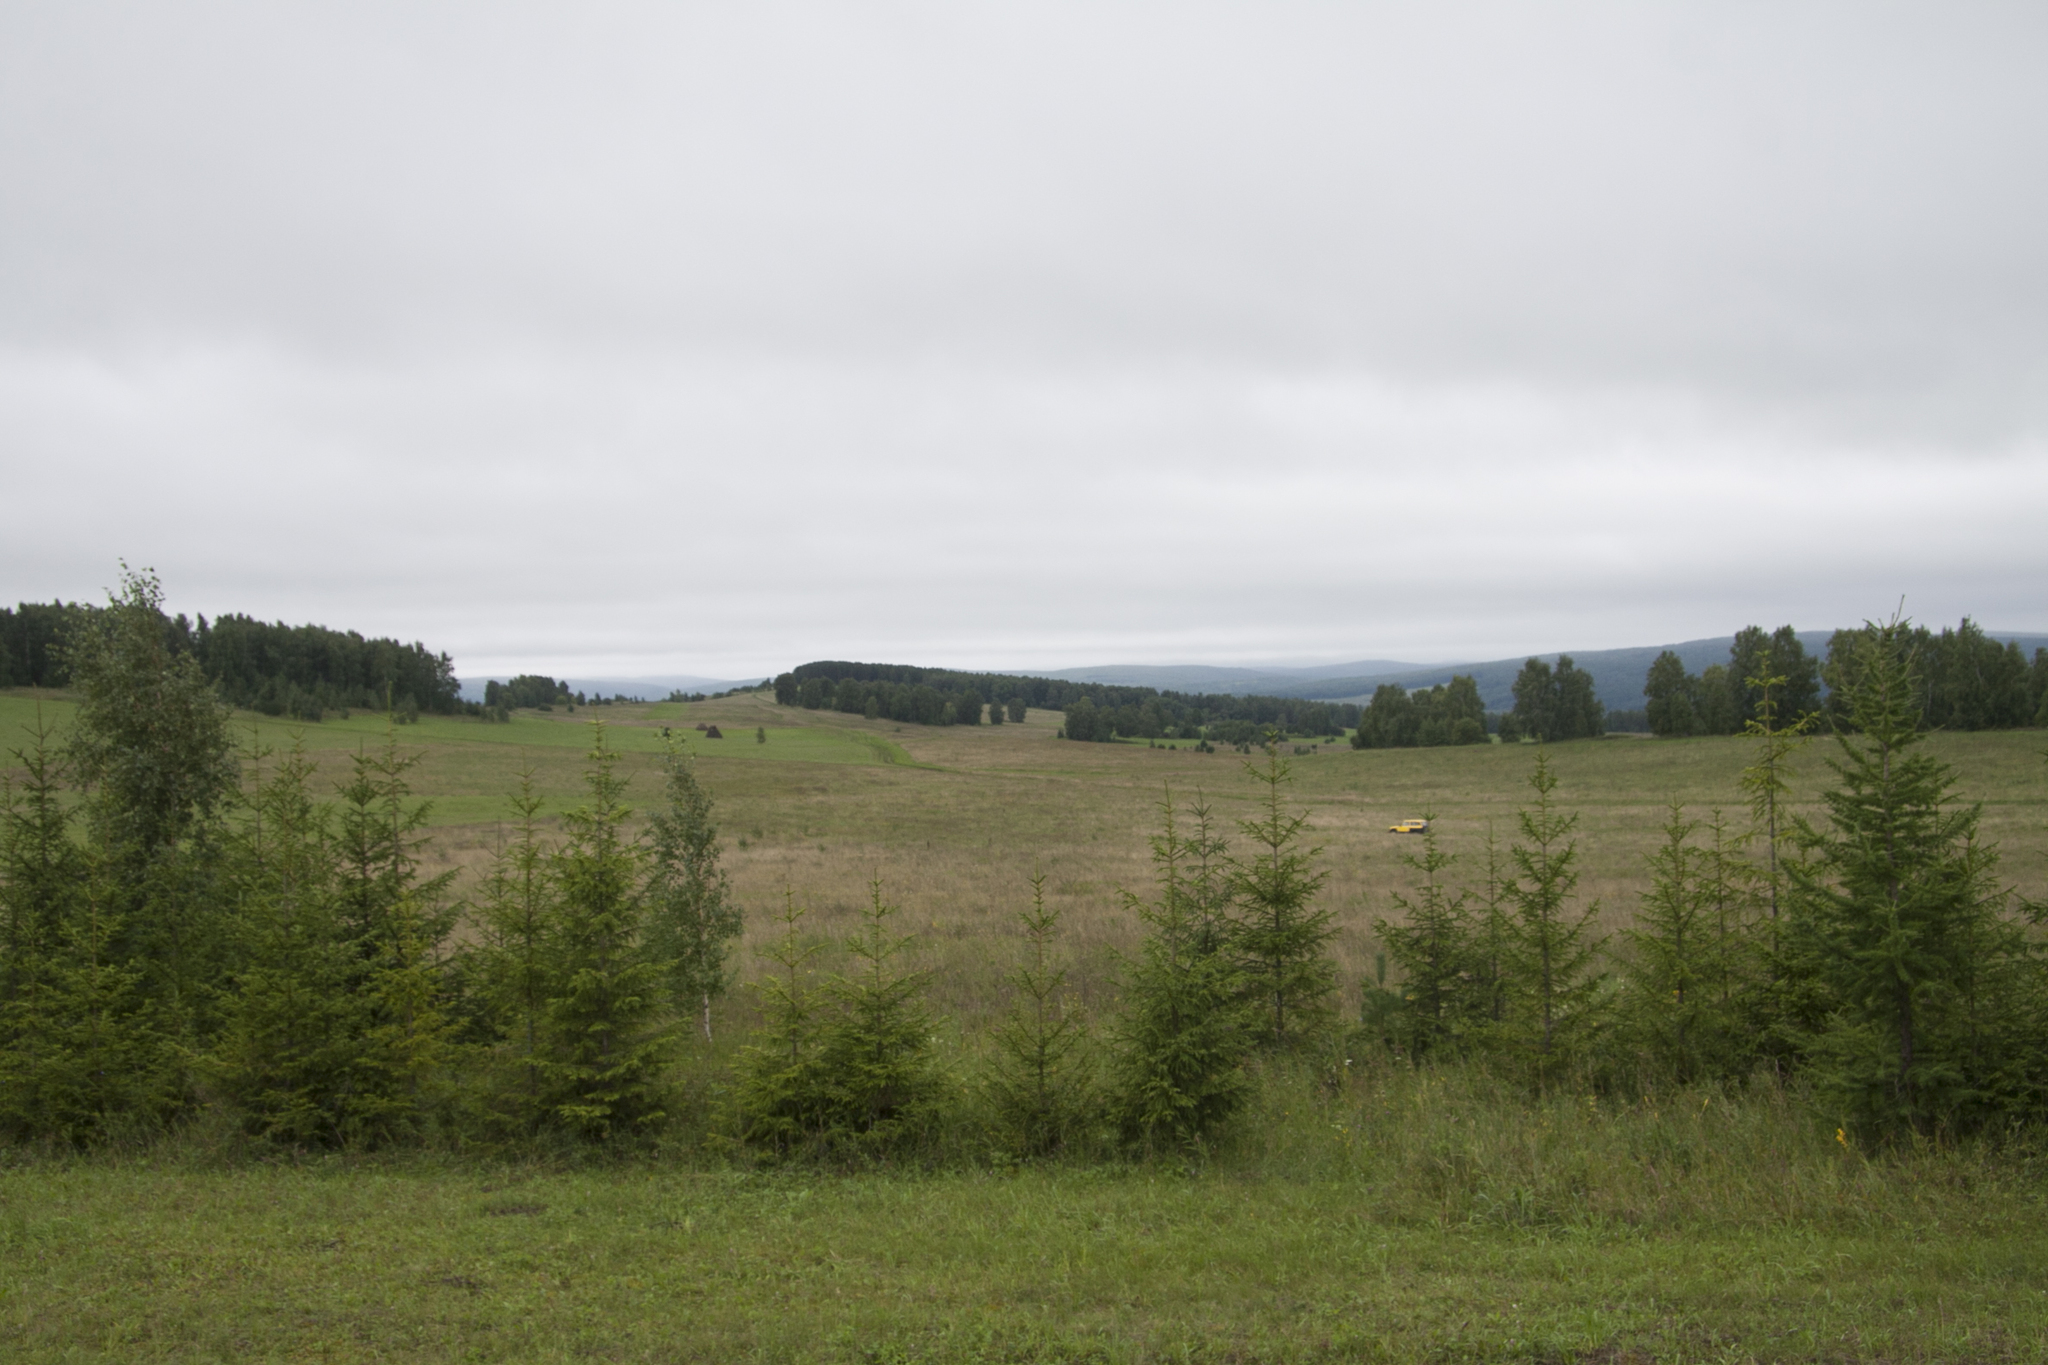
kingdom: Plantae
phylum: Tracheophyta
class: Pinopsida
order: Pinales
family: Pinaceae
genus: Picea
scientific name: Picea obovata
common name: Siberian spruce
